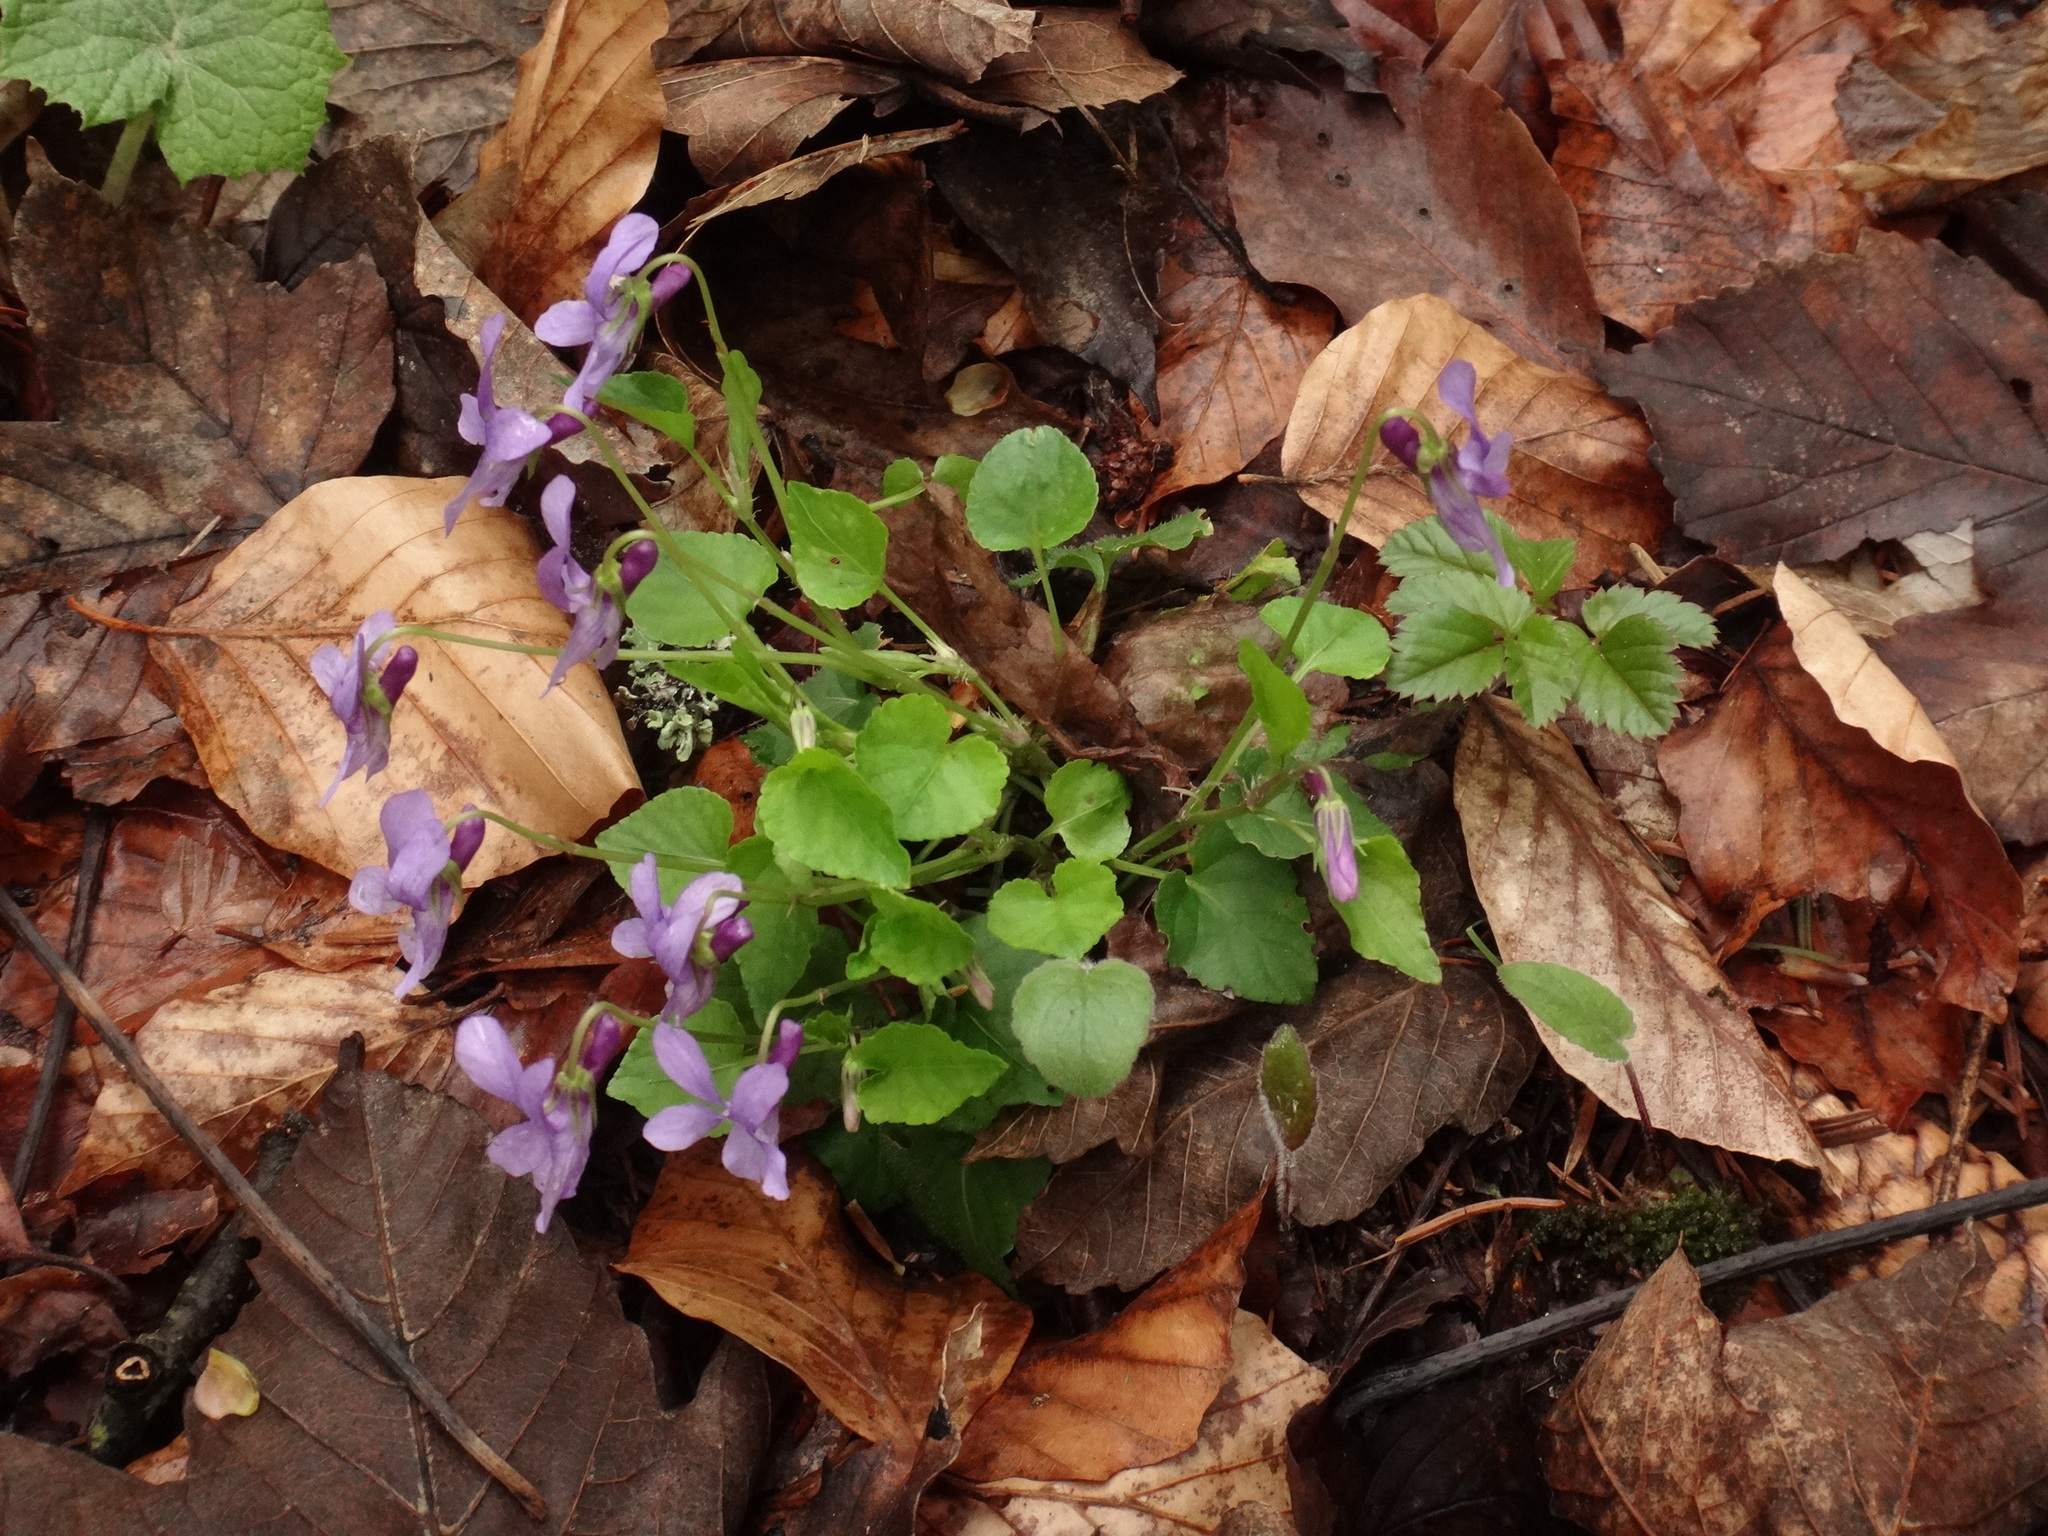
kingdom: Plantae
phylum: Tracheophyta
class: Magnoliopsida
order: Malpighiales
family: Violaceae
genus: Viola
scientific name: Viola reichenbachiana
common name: Early dog-violet
